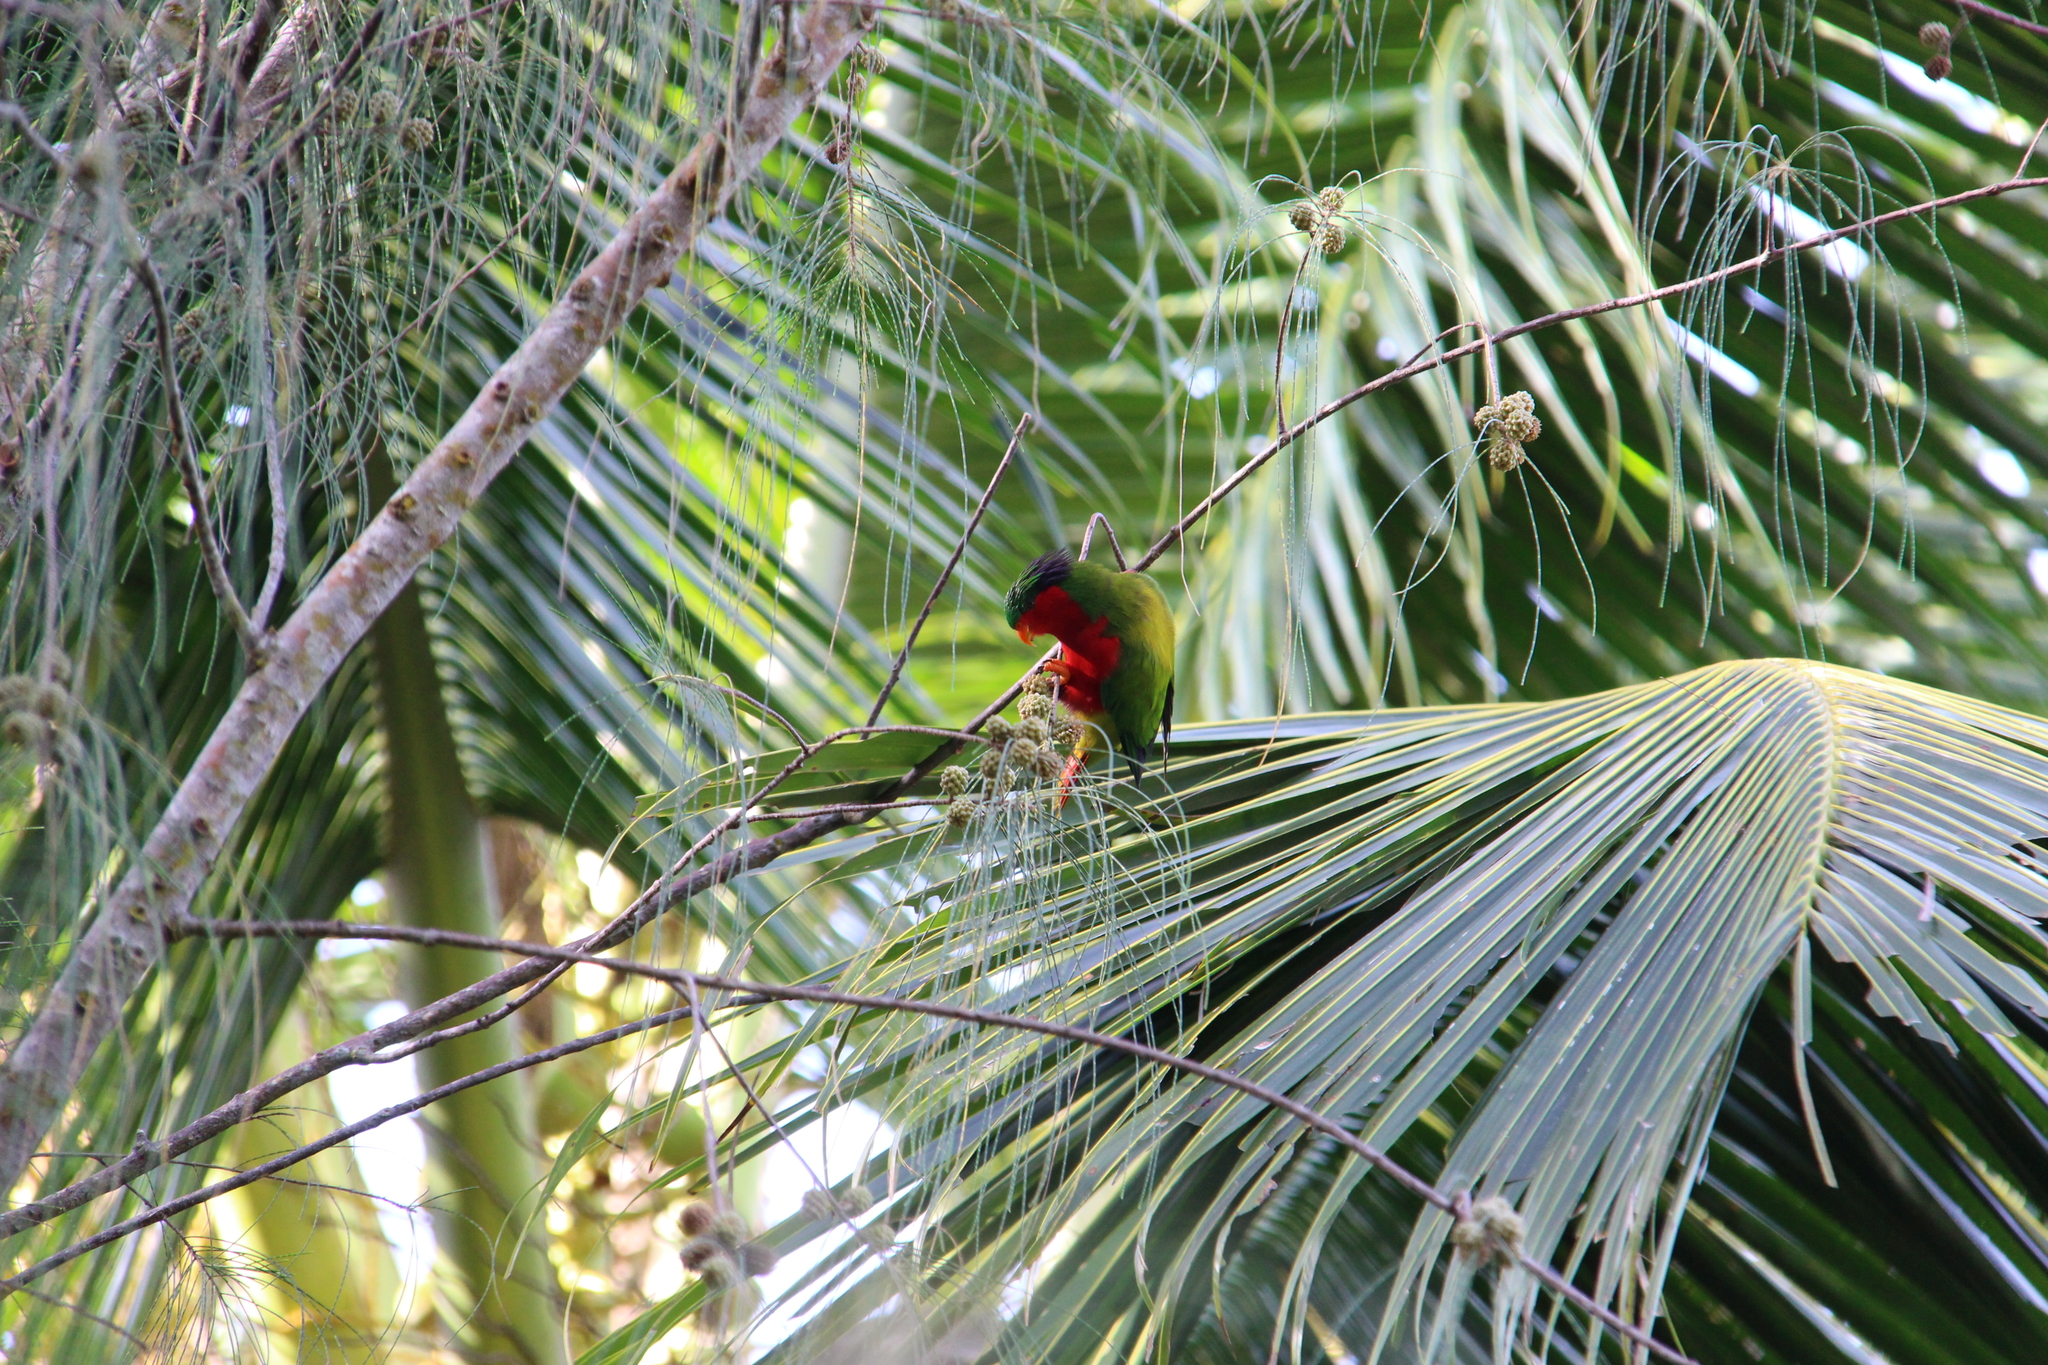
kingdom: Animalia
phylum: Chordata
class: Aves
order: Psittaciformes
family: Psittacidae
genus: Vini
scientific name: Vini kuhlii
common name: Kuhl's lorikeet
